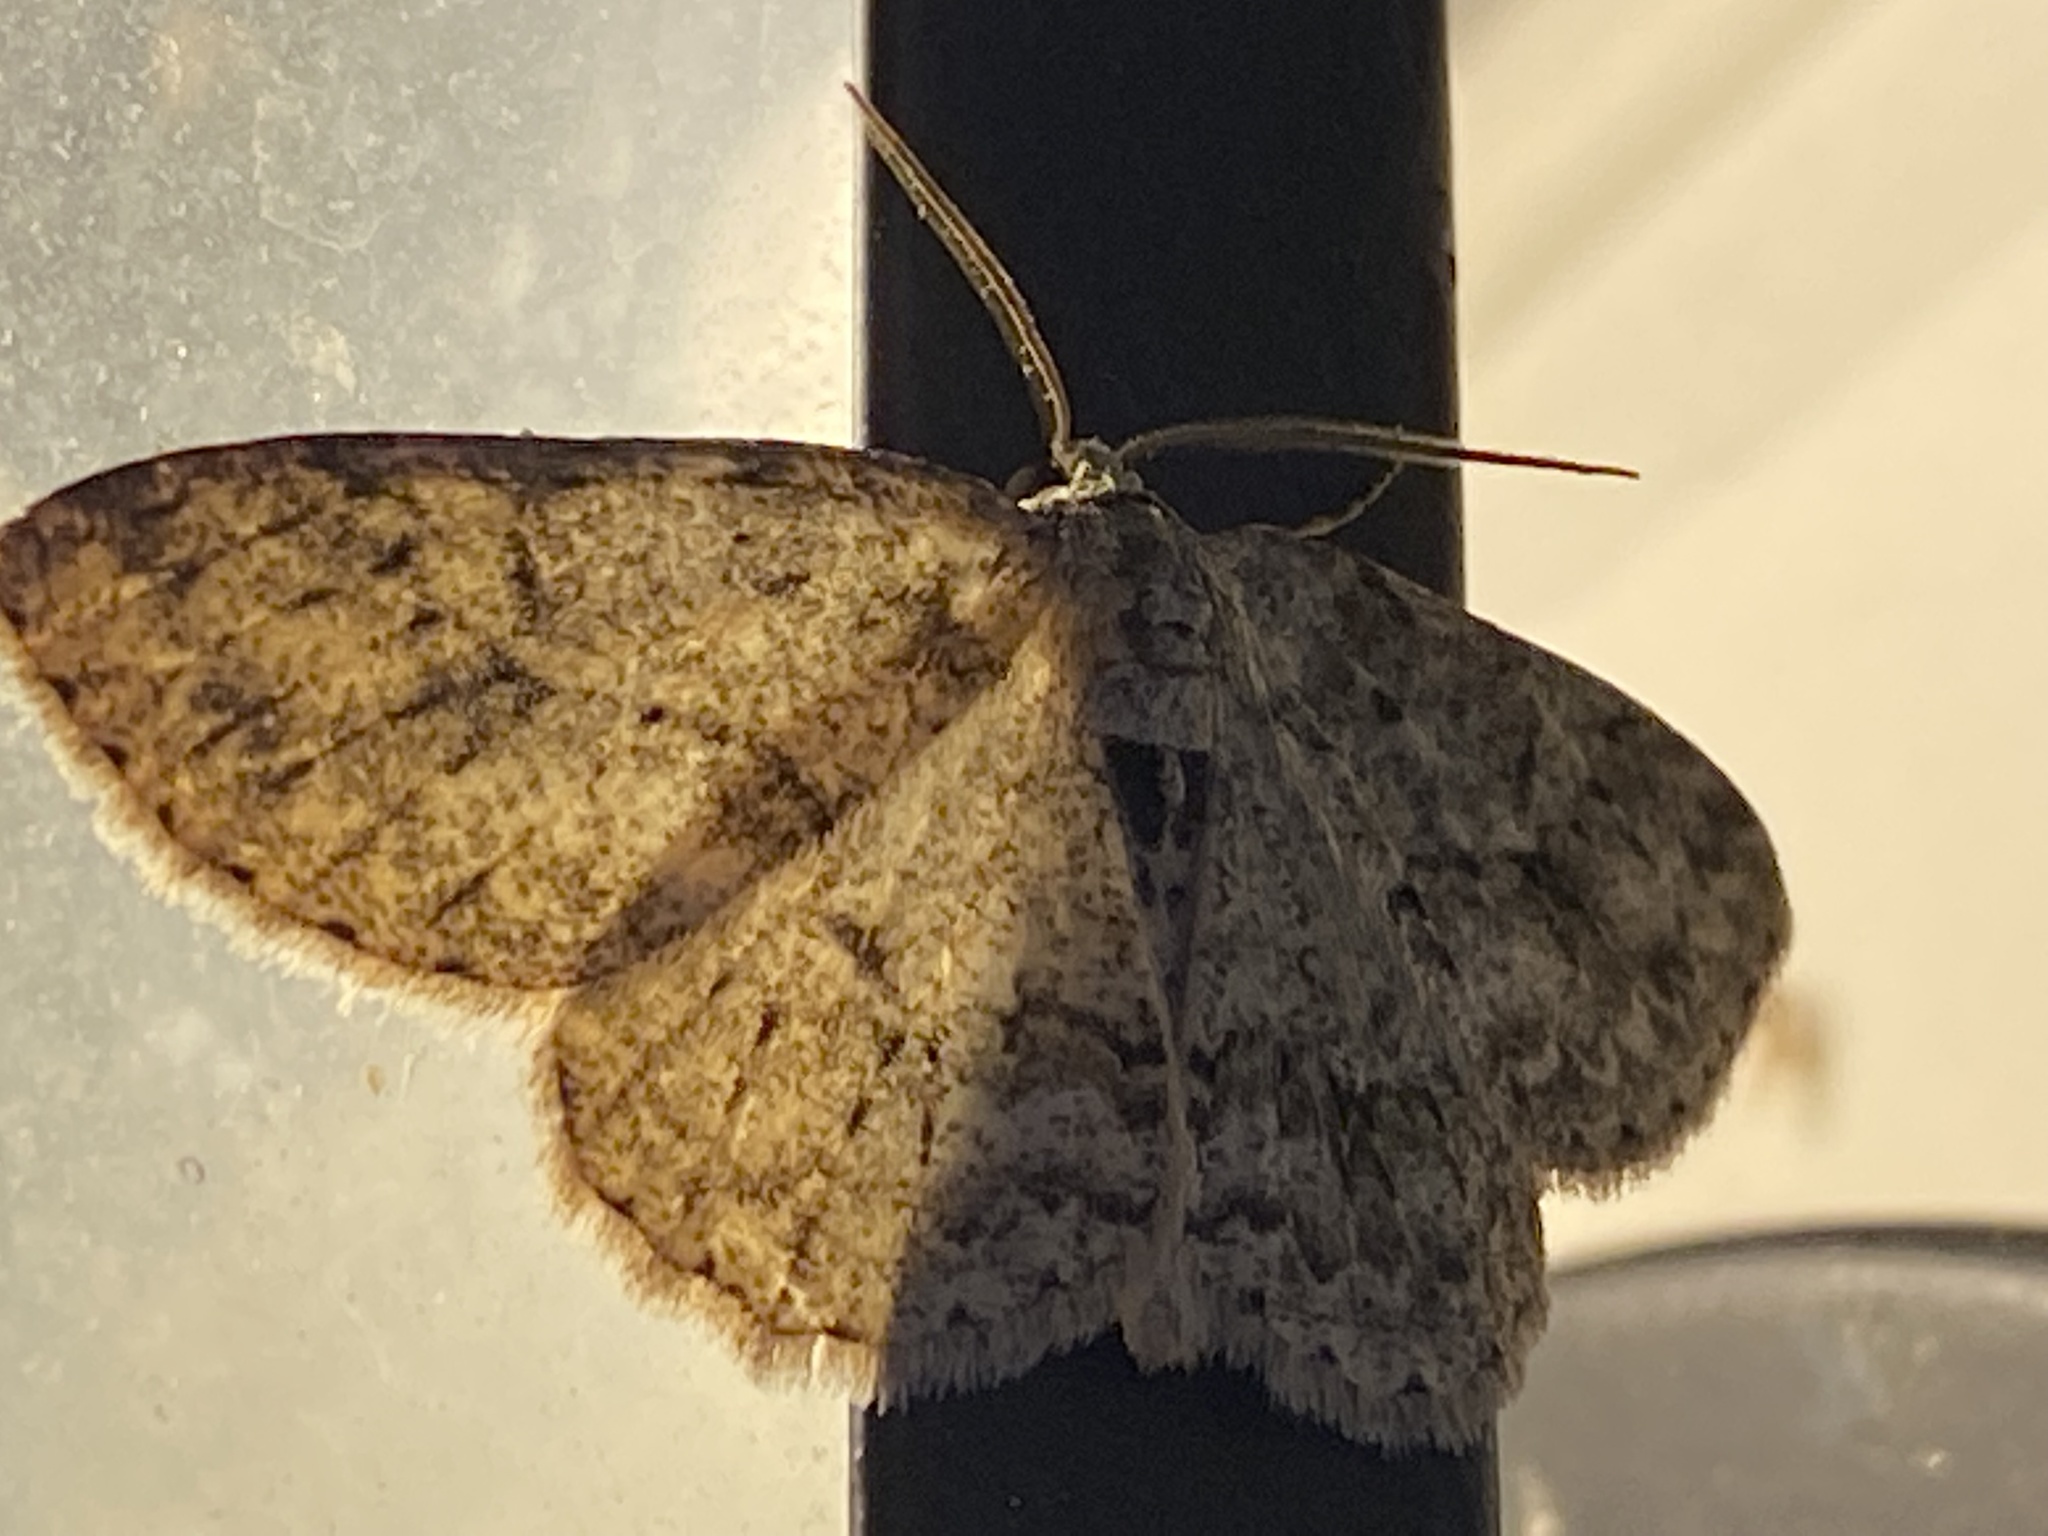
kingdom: Animalia
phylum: Arthropoda
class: Insecta
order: Lepidoptera
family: Geometridae
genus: Ectropis
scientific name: Ectropis crepuscularia
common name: Engrailed
